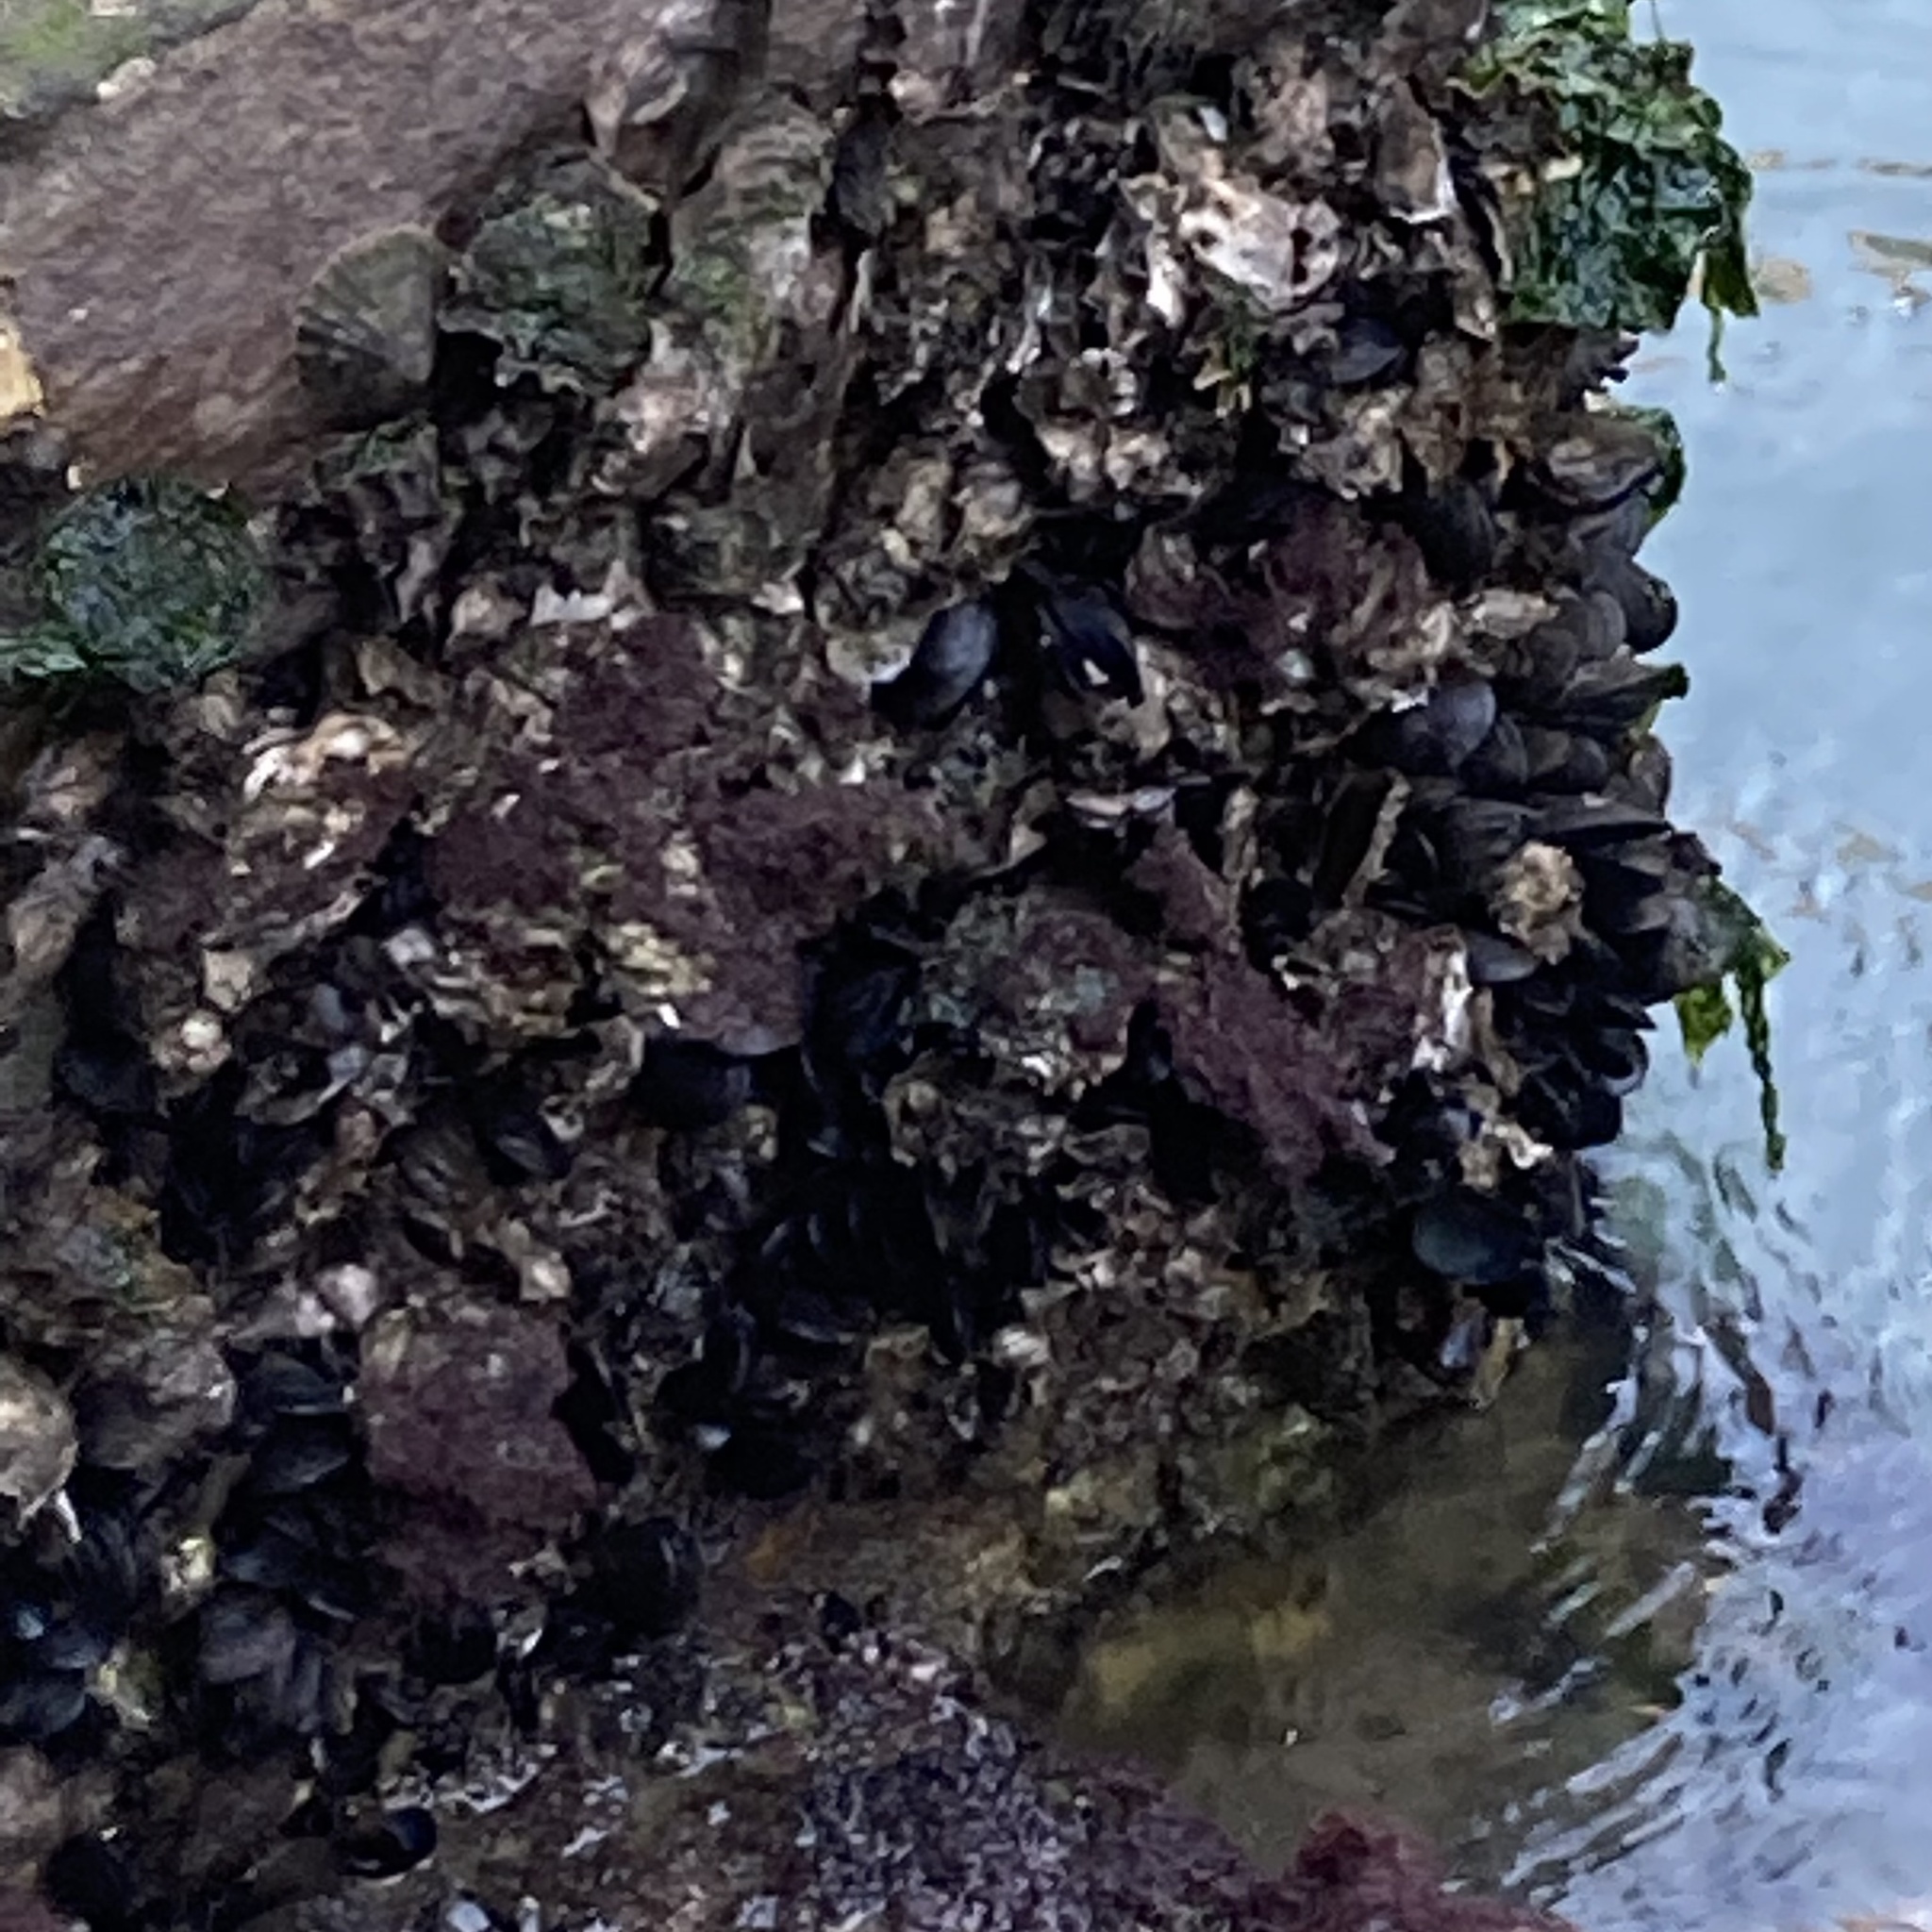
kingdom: Animalia
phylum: Mollusca
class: Bivalvia
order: Mytilida
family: Mytilidae
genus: Mytilus
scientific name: Mytilus galloprovincialis
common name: Mediterranean mussel
